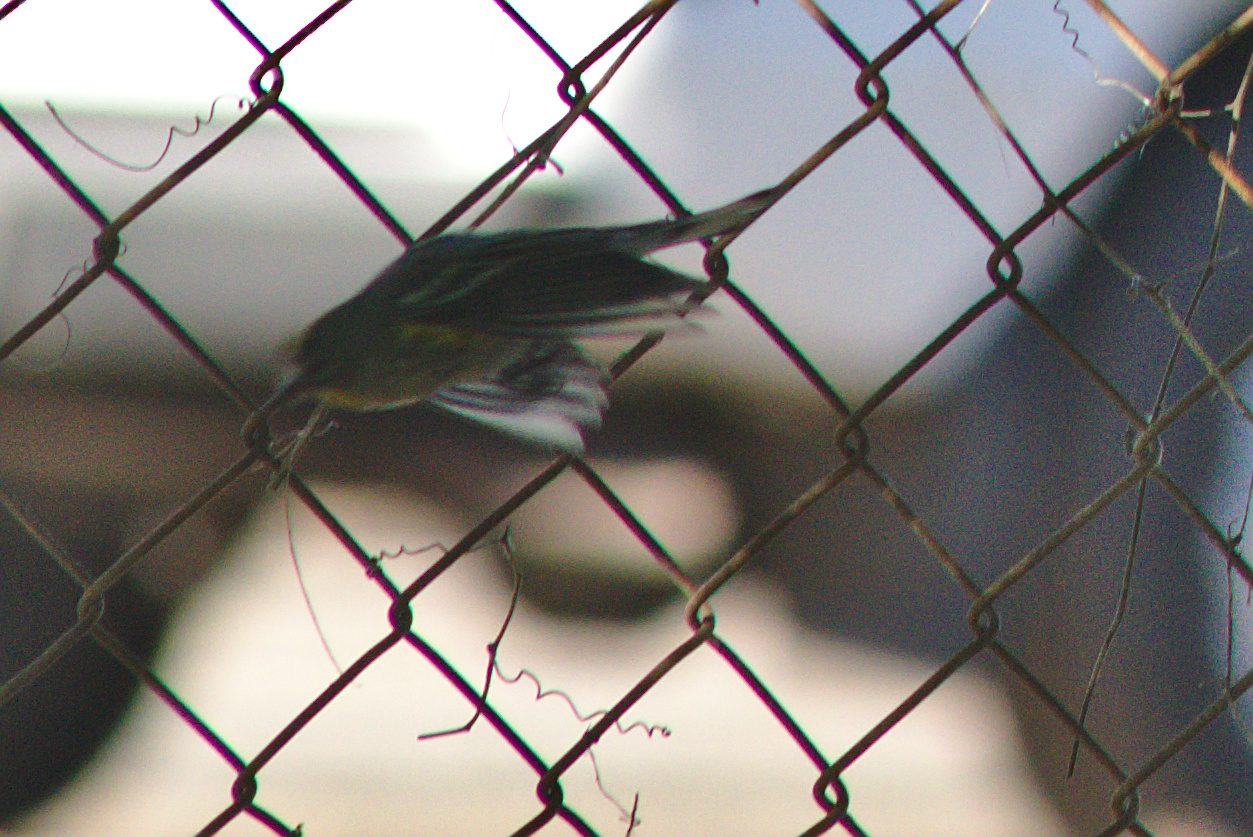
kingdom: Animalia
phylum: Chordata
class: Aves
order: Passeriformes
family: Parulidae
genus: Setophaga
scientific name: Setophaga auduboni
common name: Audubon's warbler
